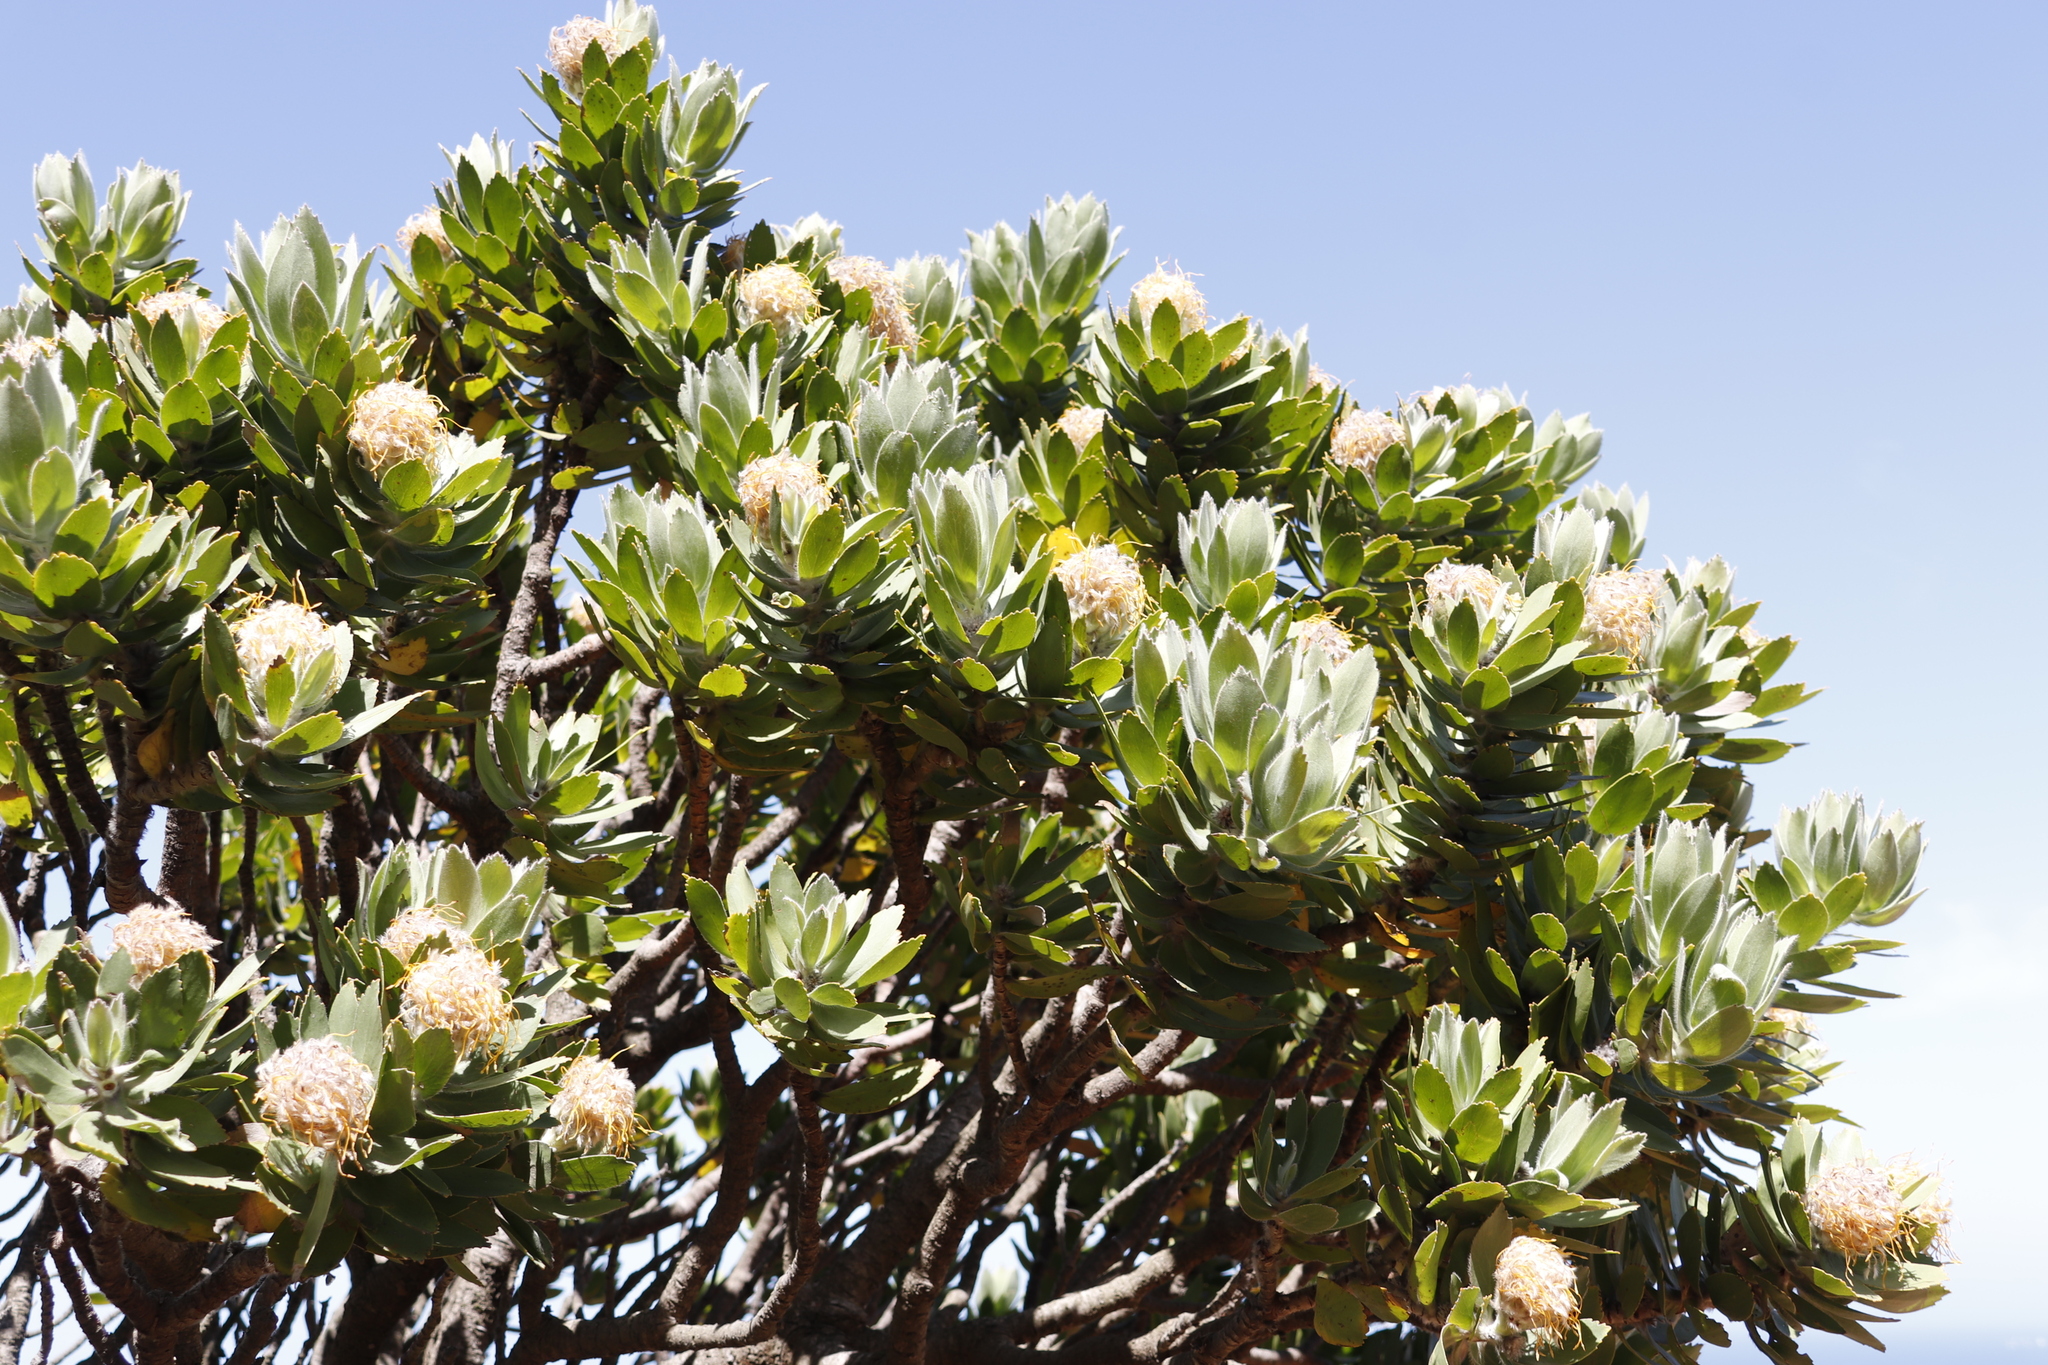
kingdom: Plantae
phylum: Tracheophyta
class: Magnoliopsida
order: Proteales
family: Proteaceae
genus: Leucospermum
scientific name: Leucospermum conocarpodendron
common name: Tree pincushion
